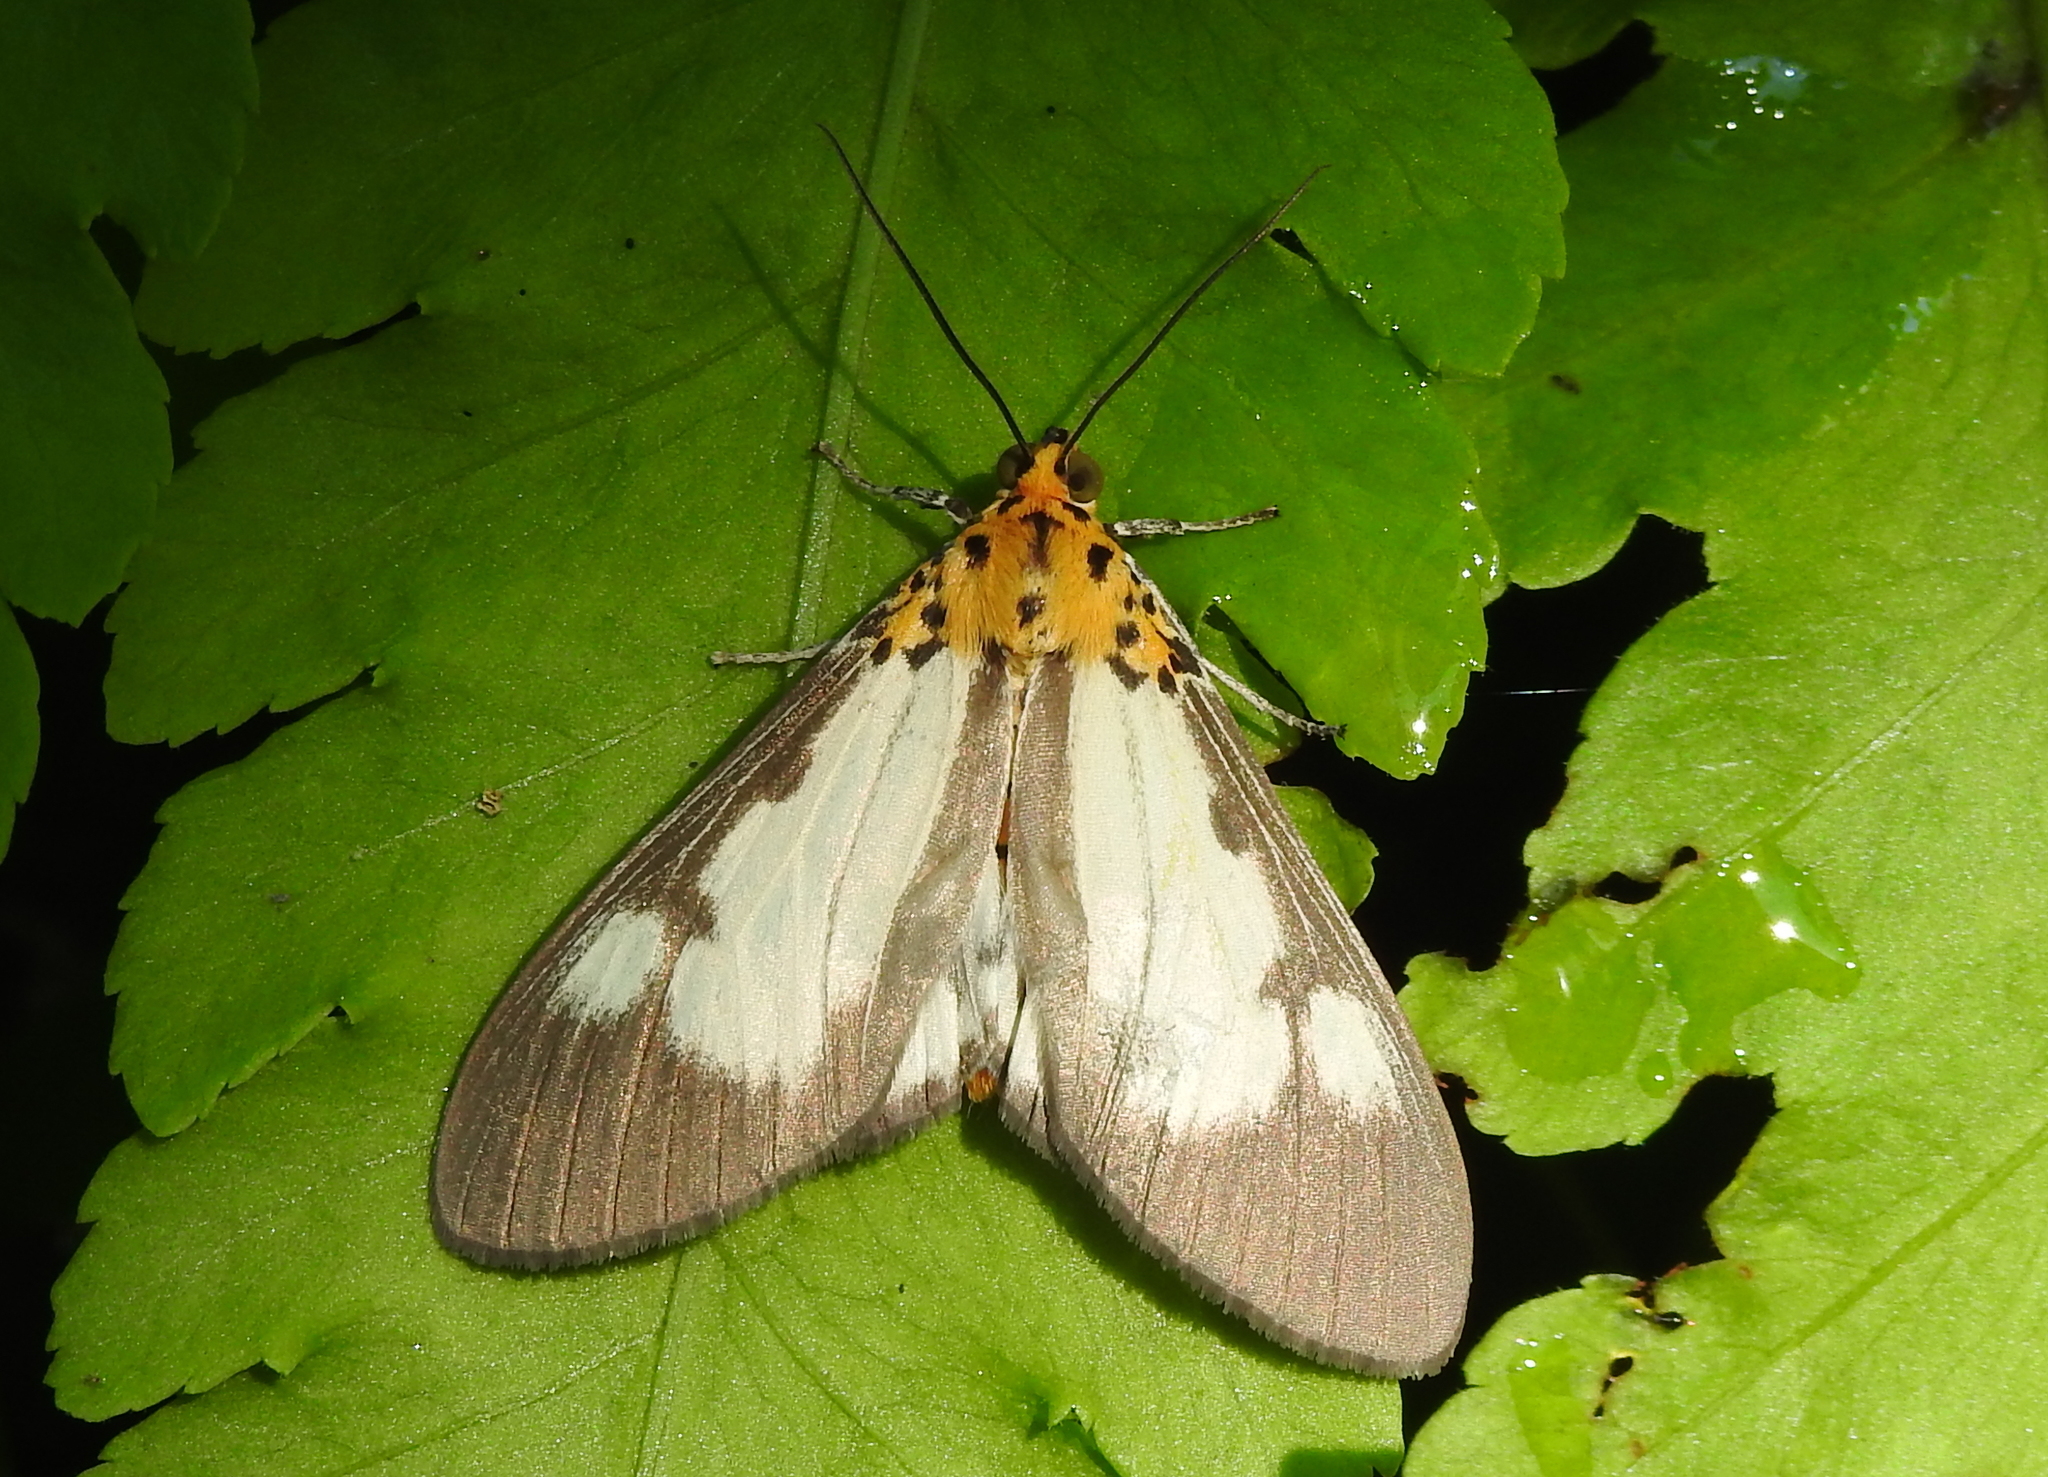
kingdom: Animalia
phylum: Arthropoda
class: Insecta
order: Lepidoptera
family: Erebidae
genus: Asota
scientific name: Asota plana
